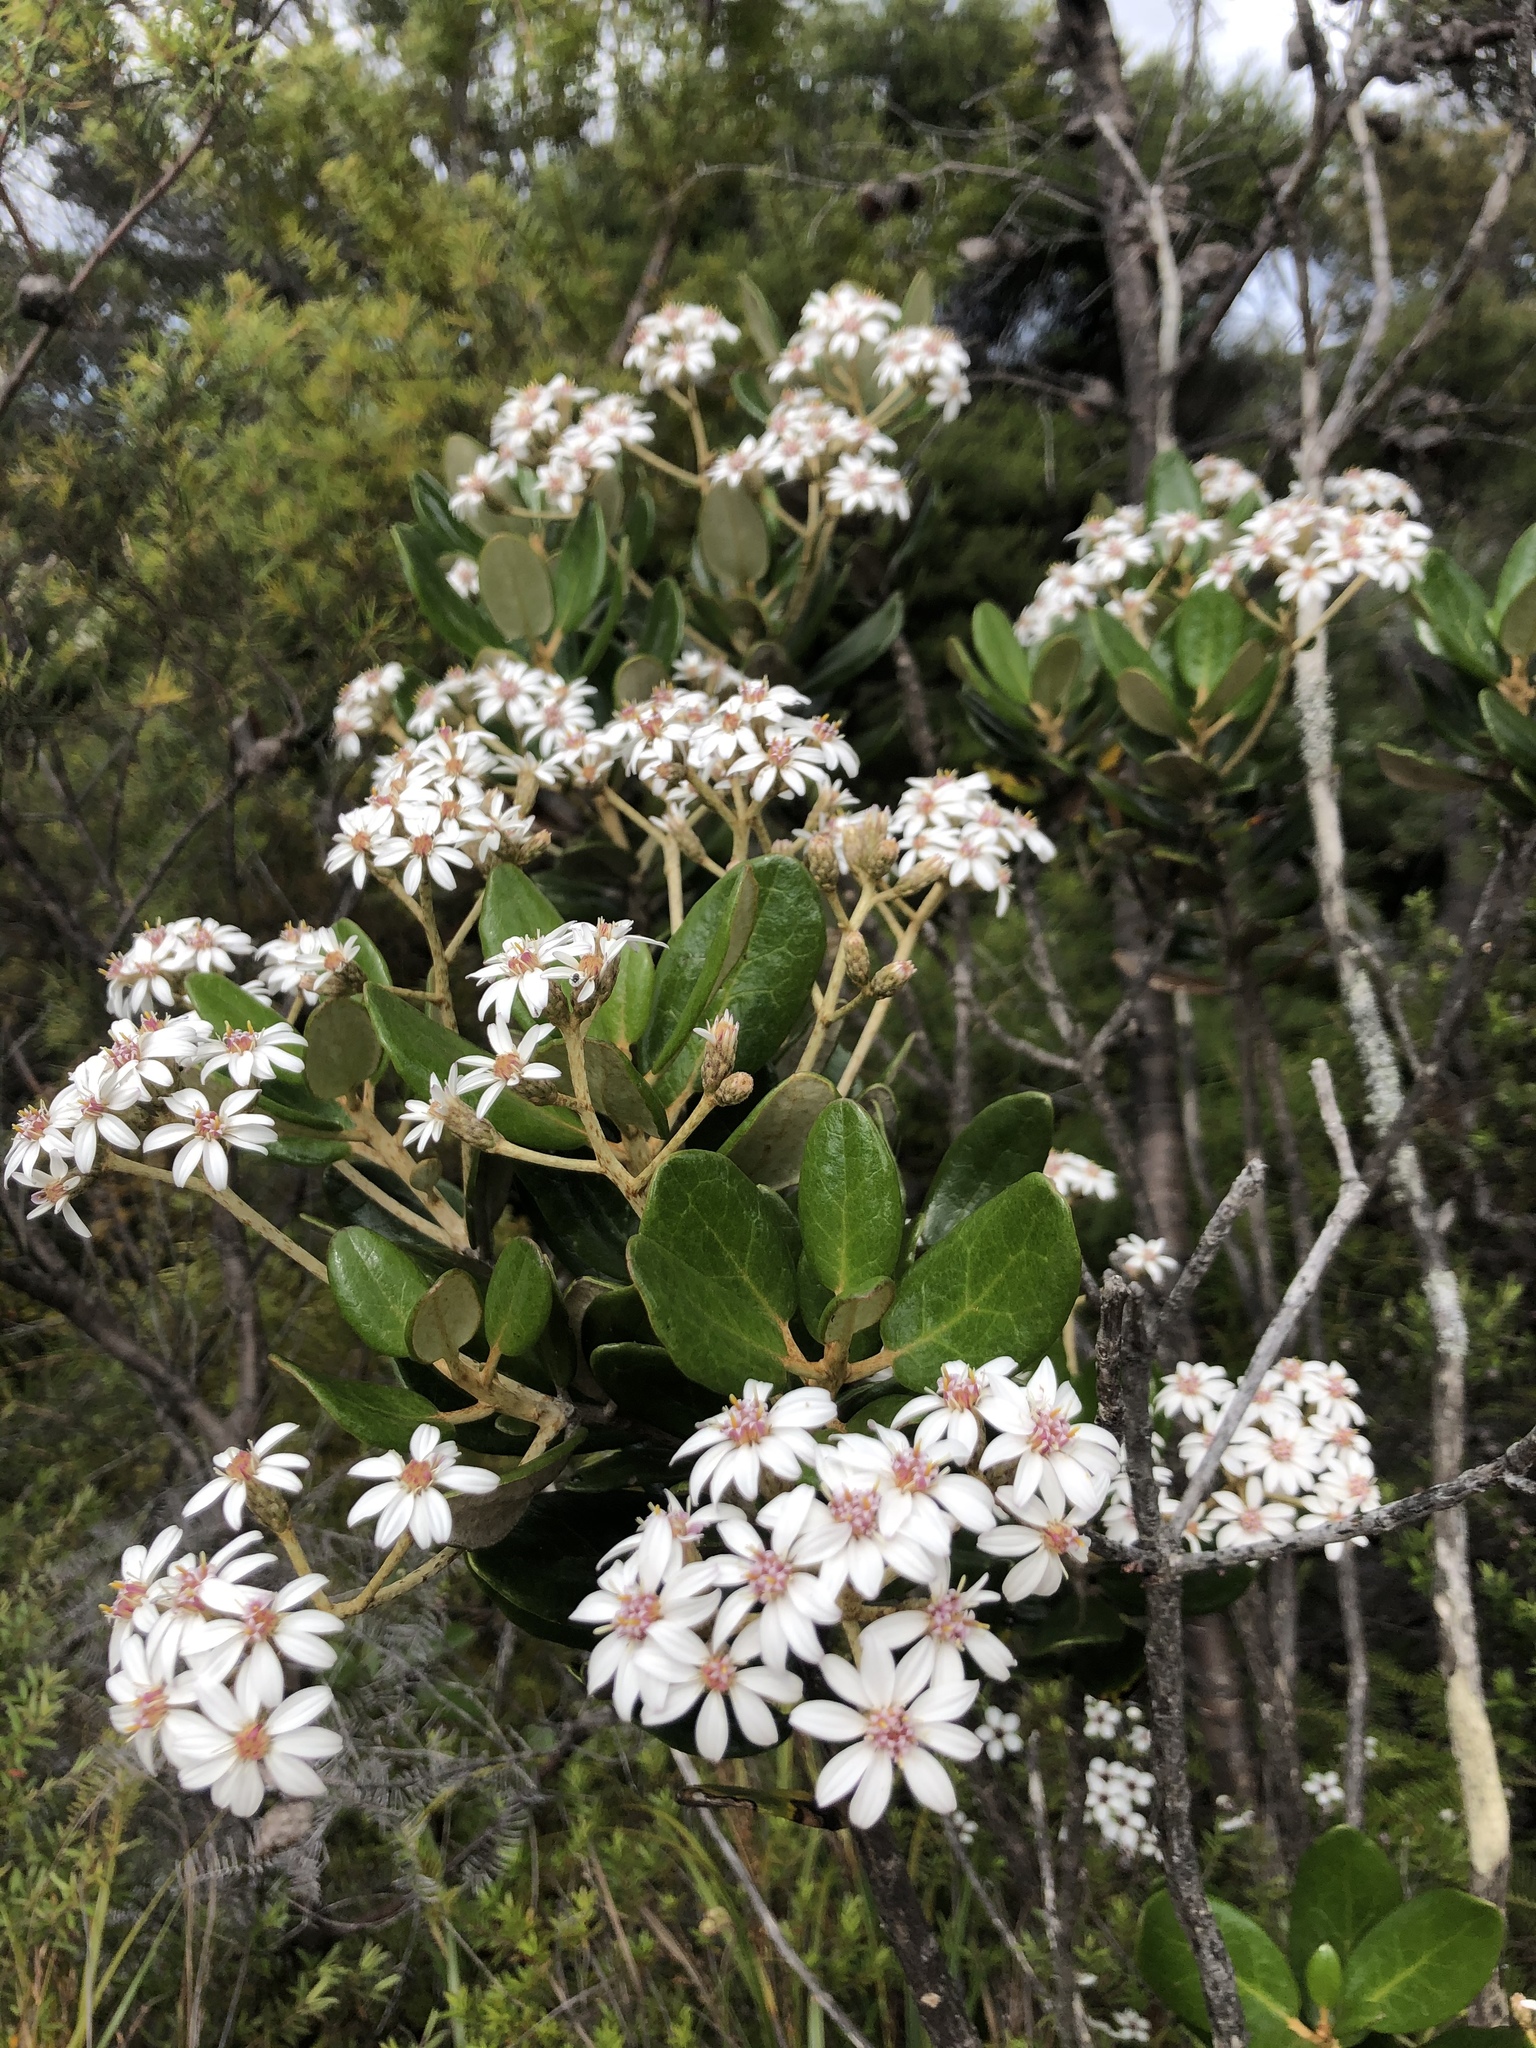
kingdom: Plantae
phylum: Tracheophyta
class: Magnoliopsida
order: Asterales
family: Asteraceae
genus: Olearia
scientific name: Olearia allomii
